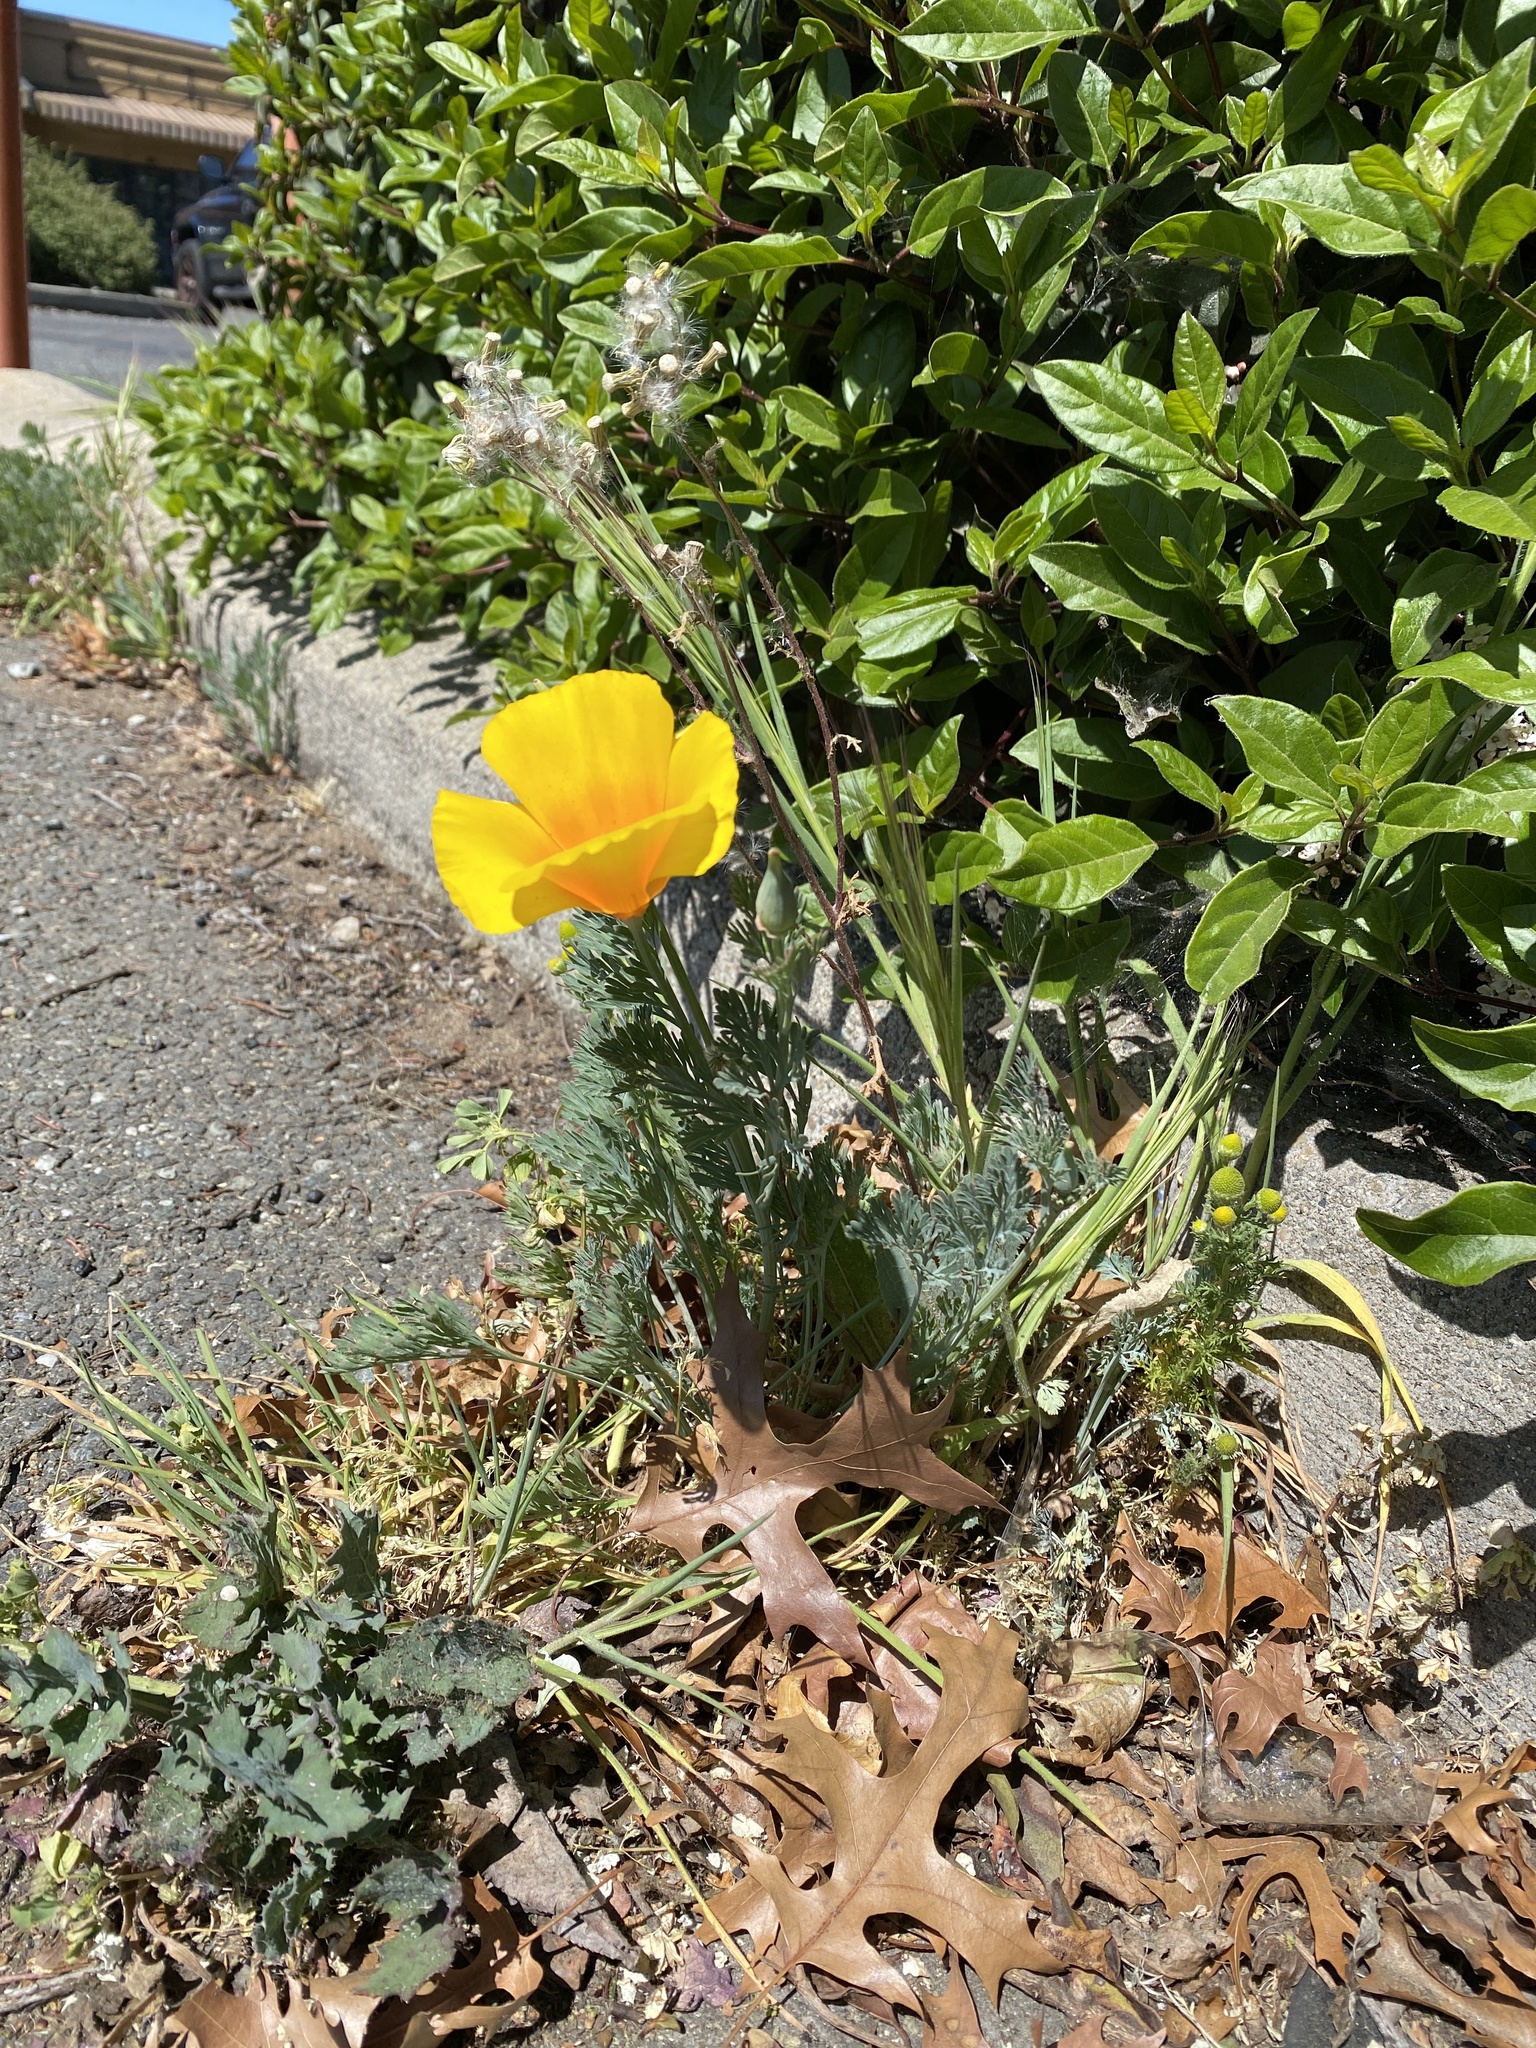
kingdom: Plantae
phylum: Tracheophyta
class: Magnoliopsida
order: Ranunculales
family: Papaveraceae
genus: Eschscholzia
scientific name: Eschscholzia californica
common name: California poppy
